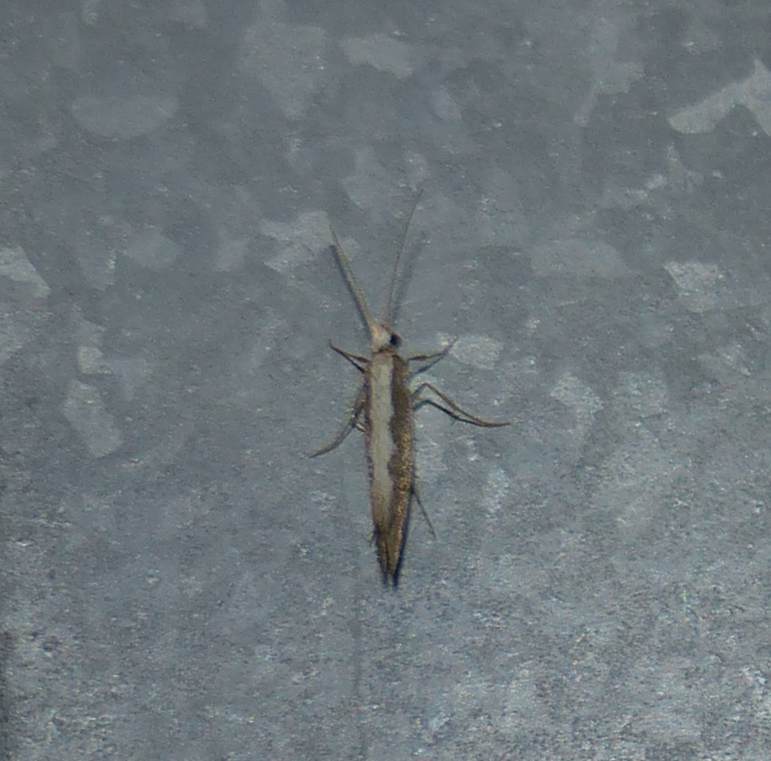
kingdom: Animalia
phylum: Arthropoda
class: Insecta
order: Lepidoptera
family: Plutellidae
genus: Plutella
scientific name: Plutella xylostella
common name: Diamond-back moth
